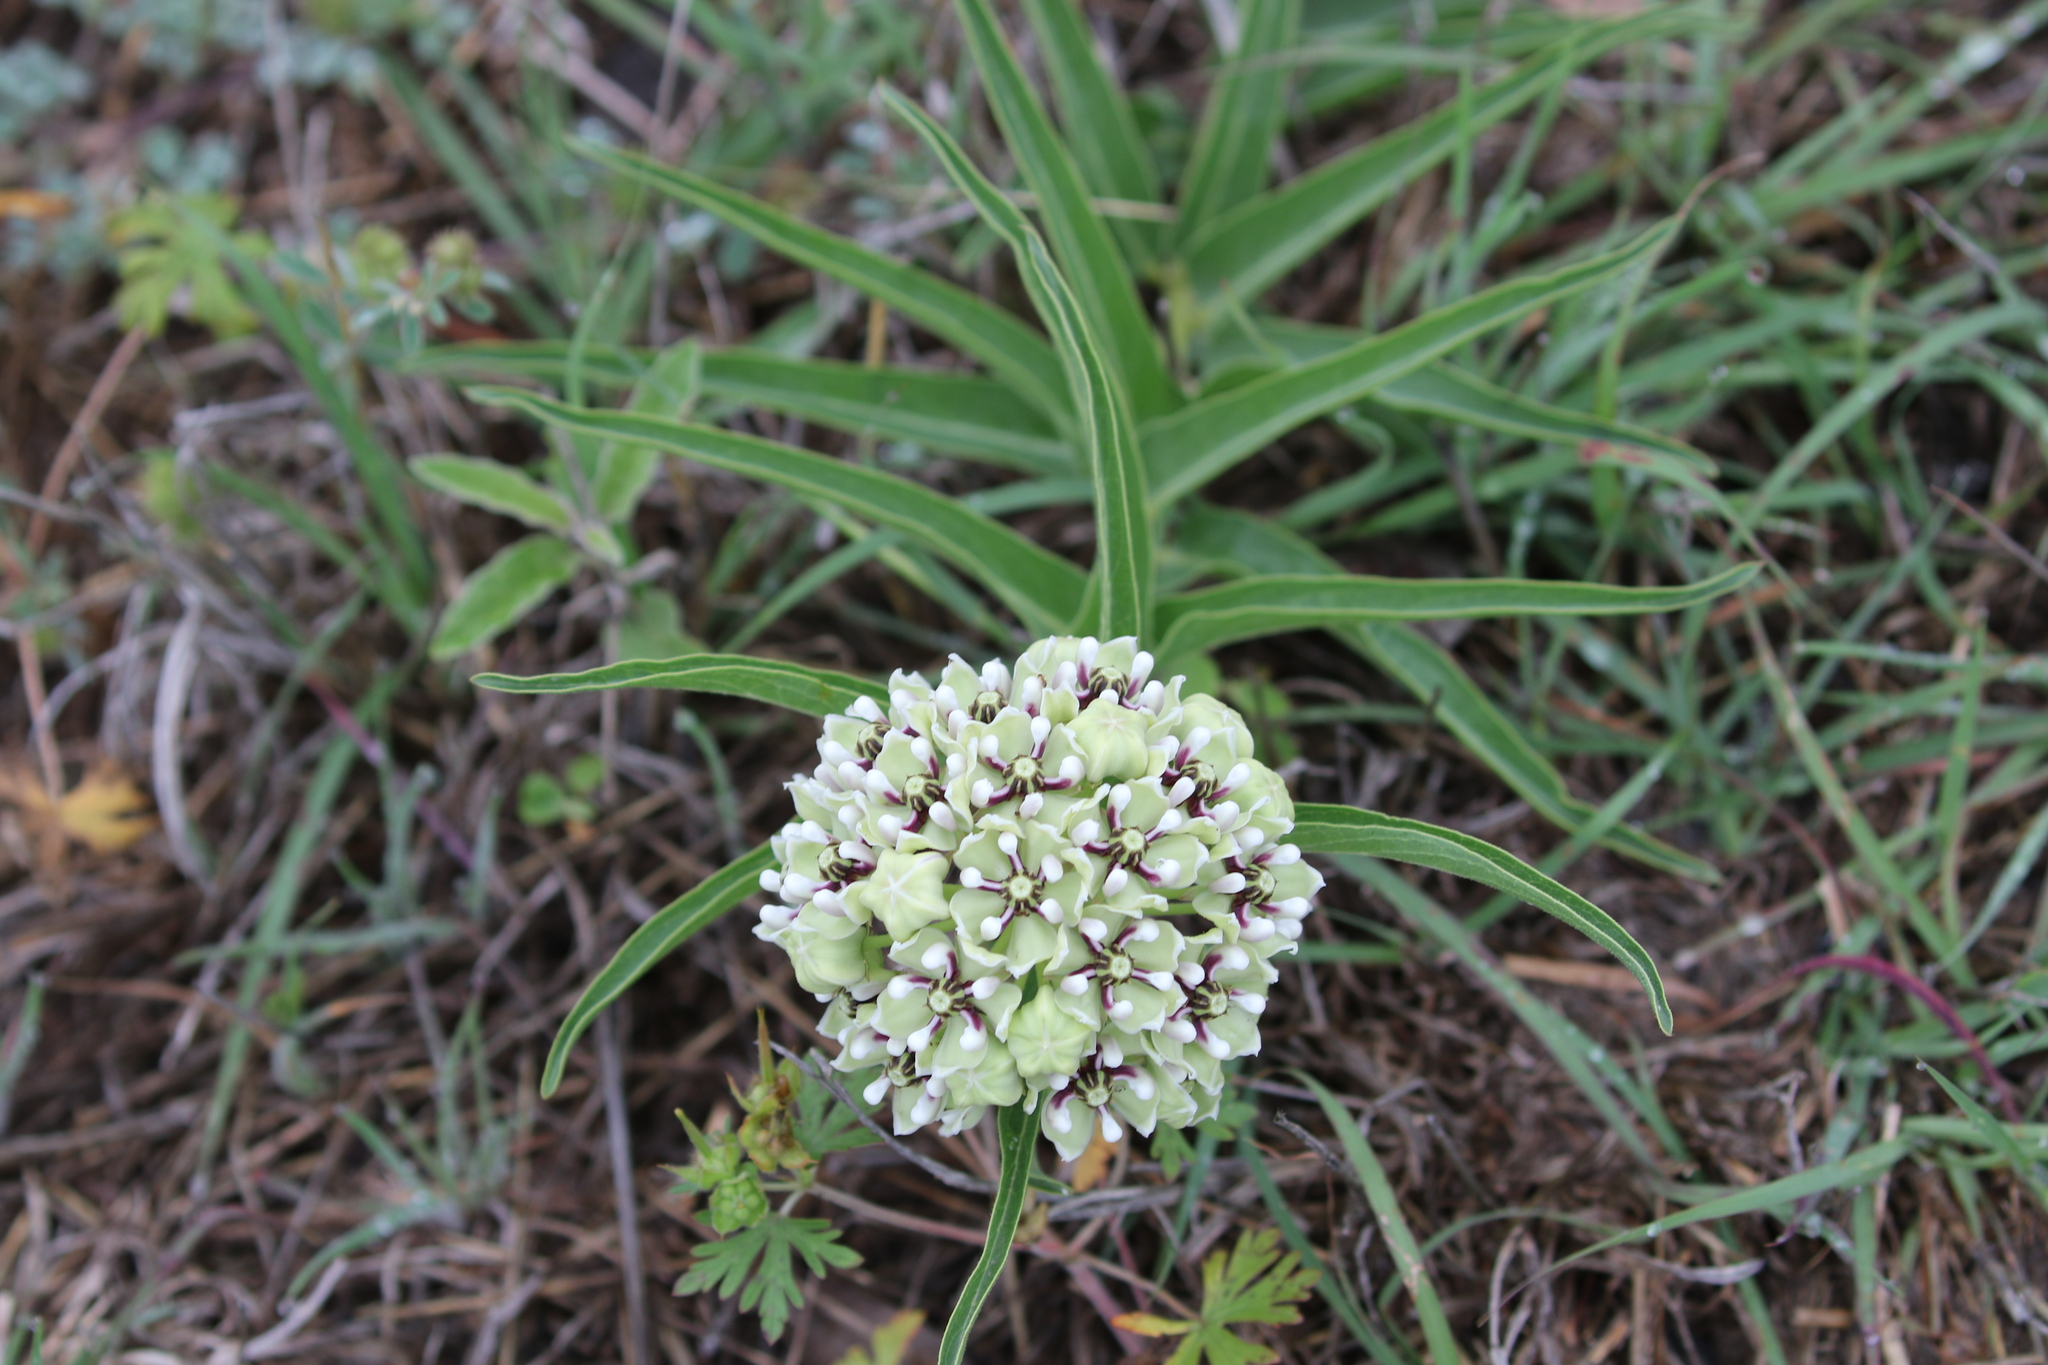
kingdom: Plantae
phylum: Tracheophyta
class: Magnoliopsida
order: Gentianales
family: Apocynaceae
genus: Asclepias
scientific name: Asclepias asperula
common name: Antelope horns
